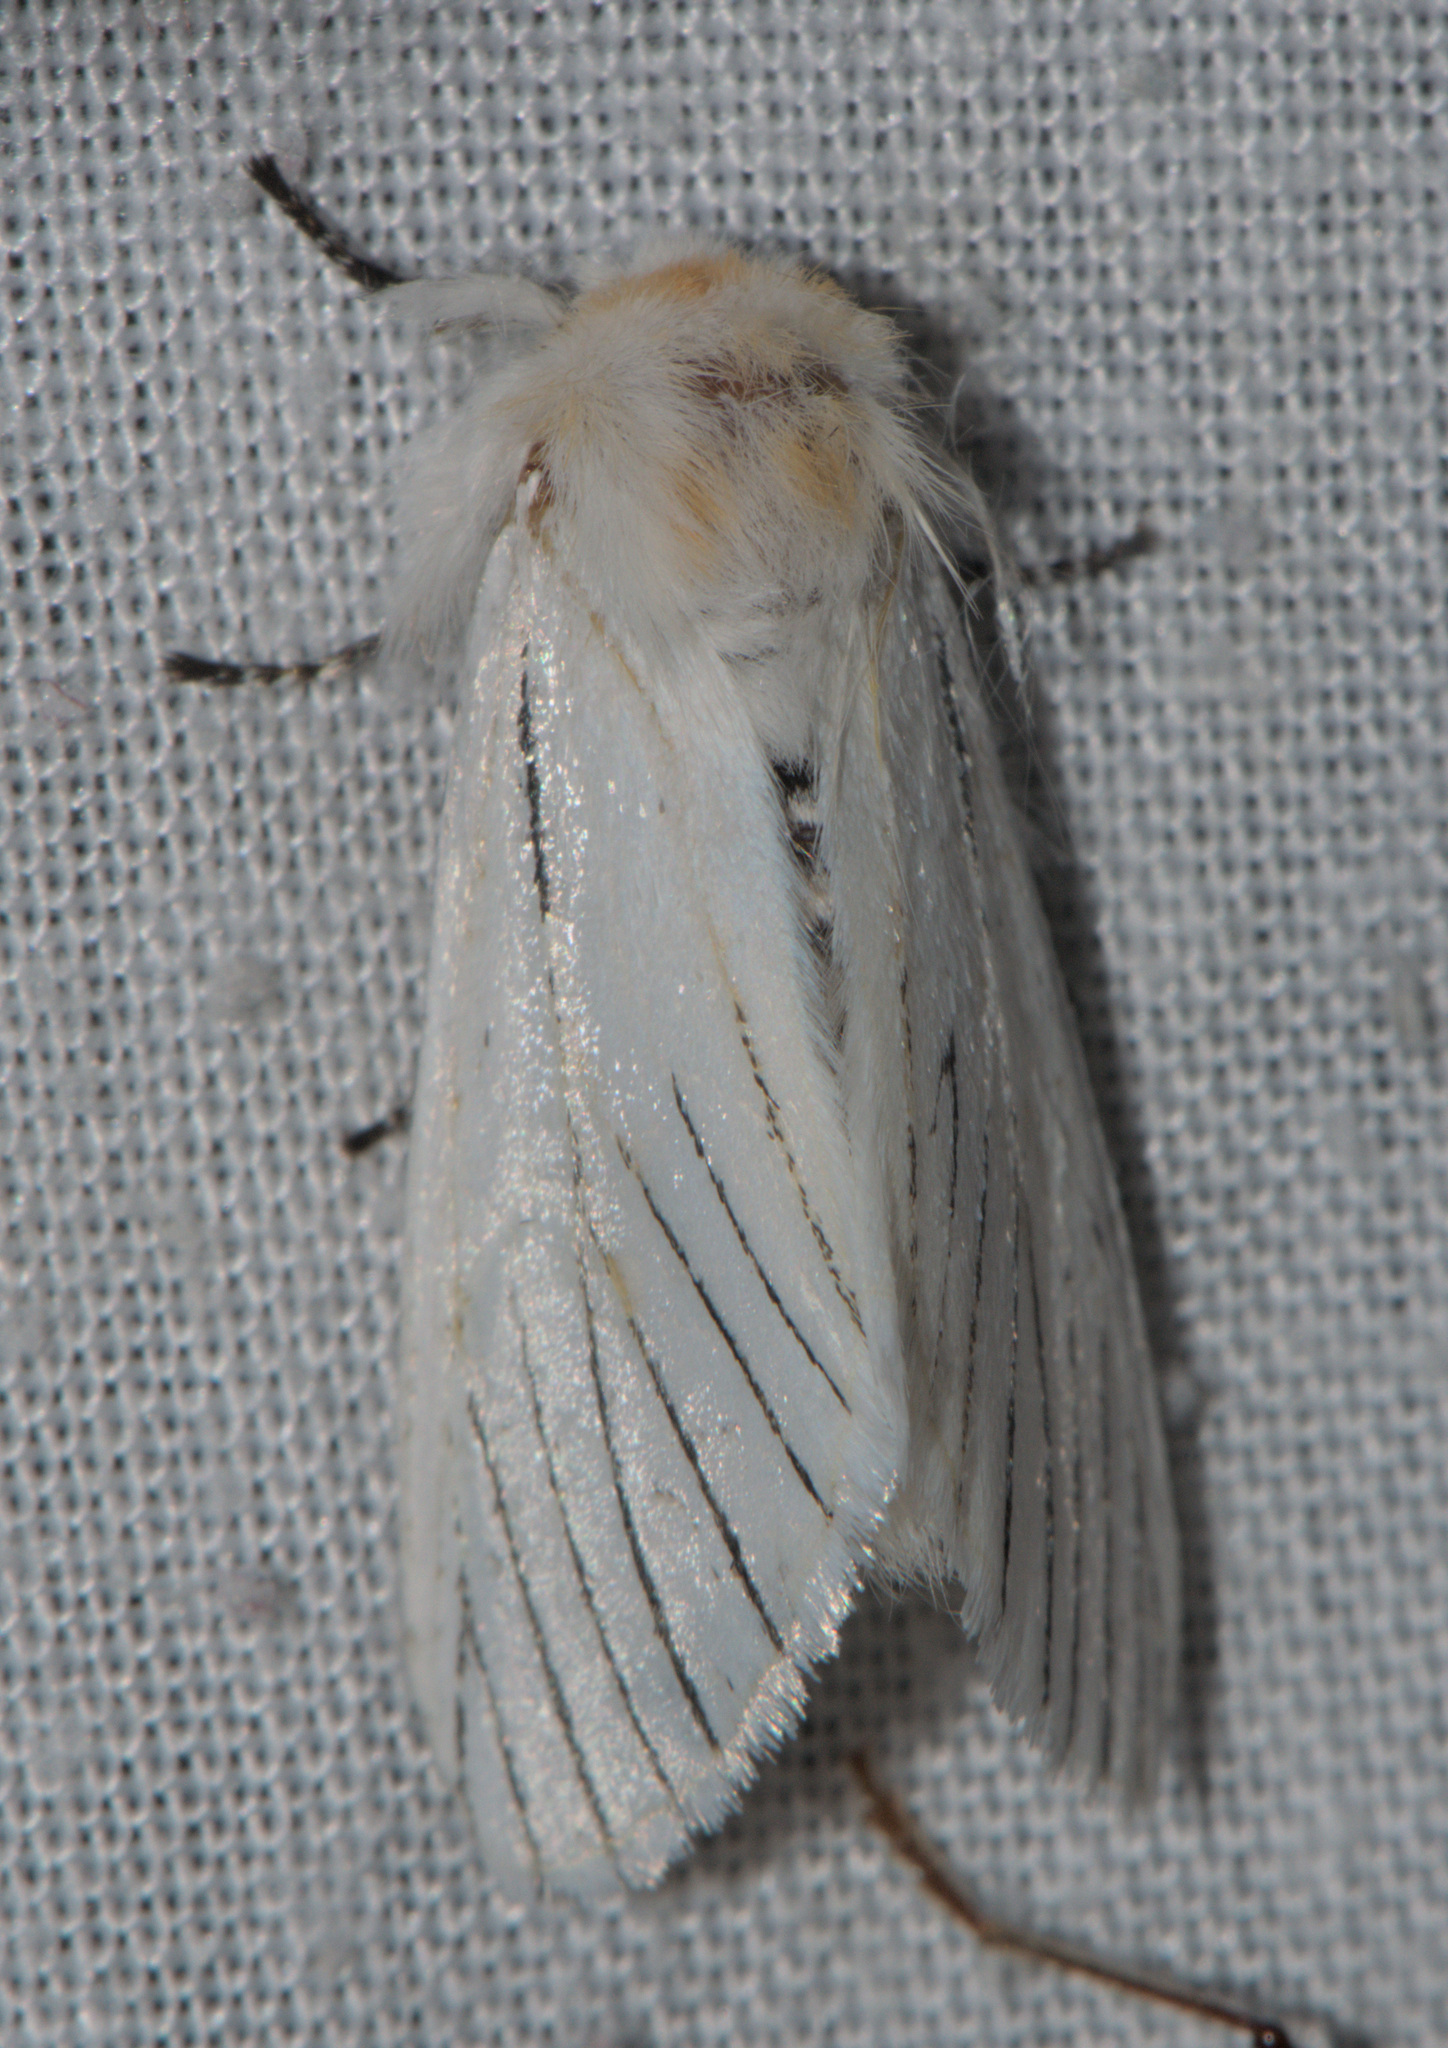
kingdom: Animalia
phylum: Arthropoda
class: Insecta
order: Lepidoptera
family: Notodontidae
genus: Gazalina
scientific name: Gazalina apsara
